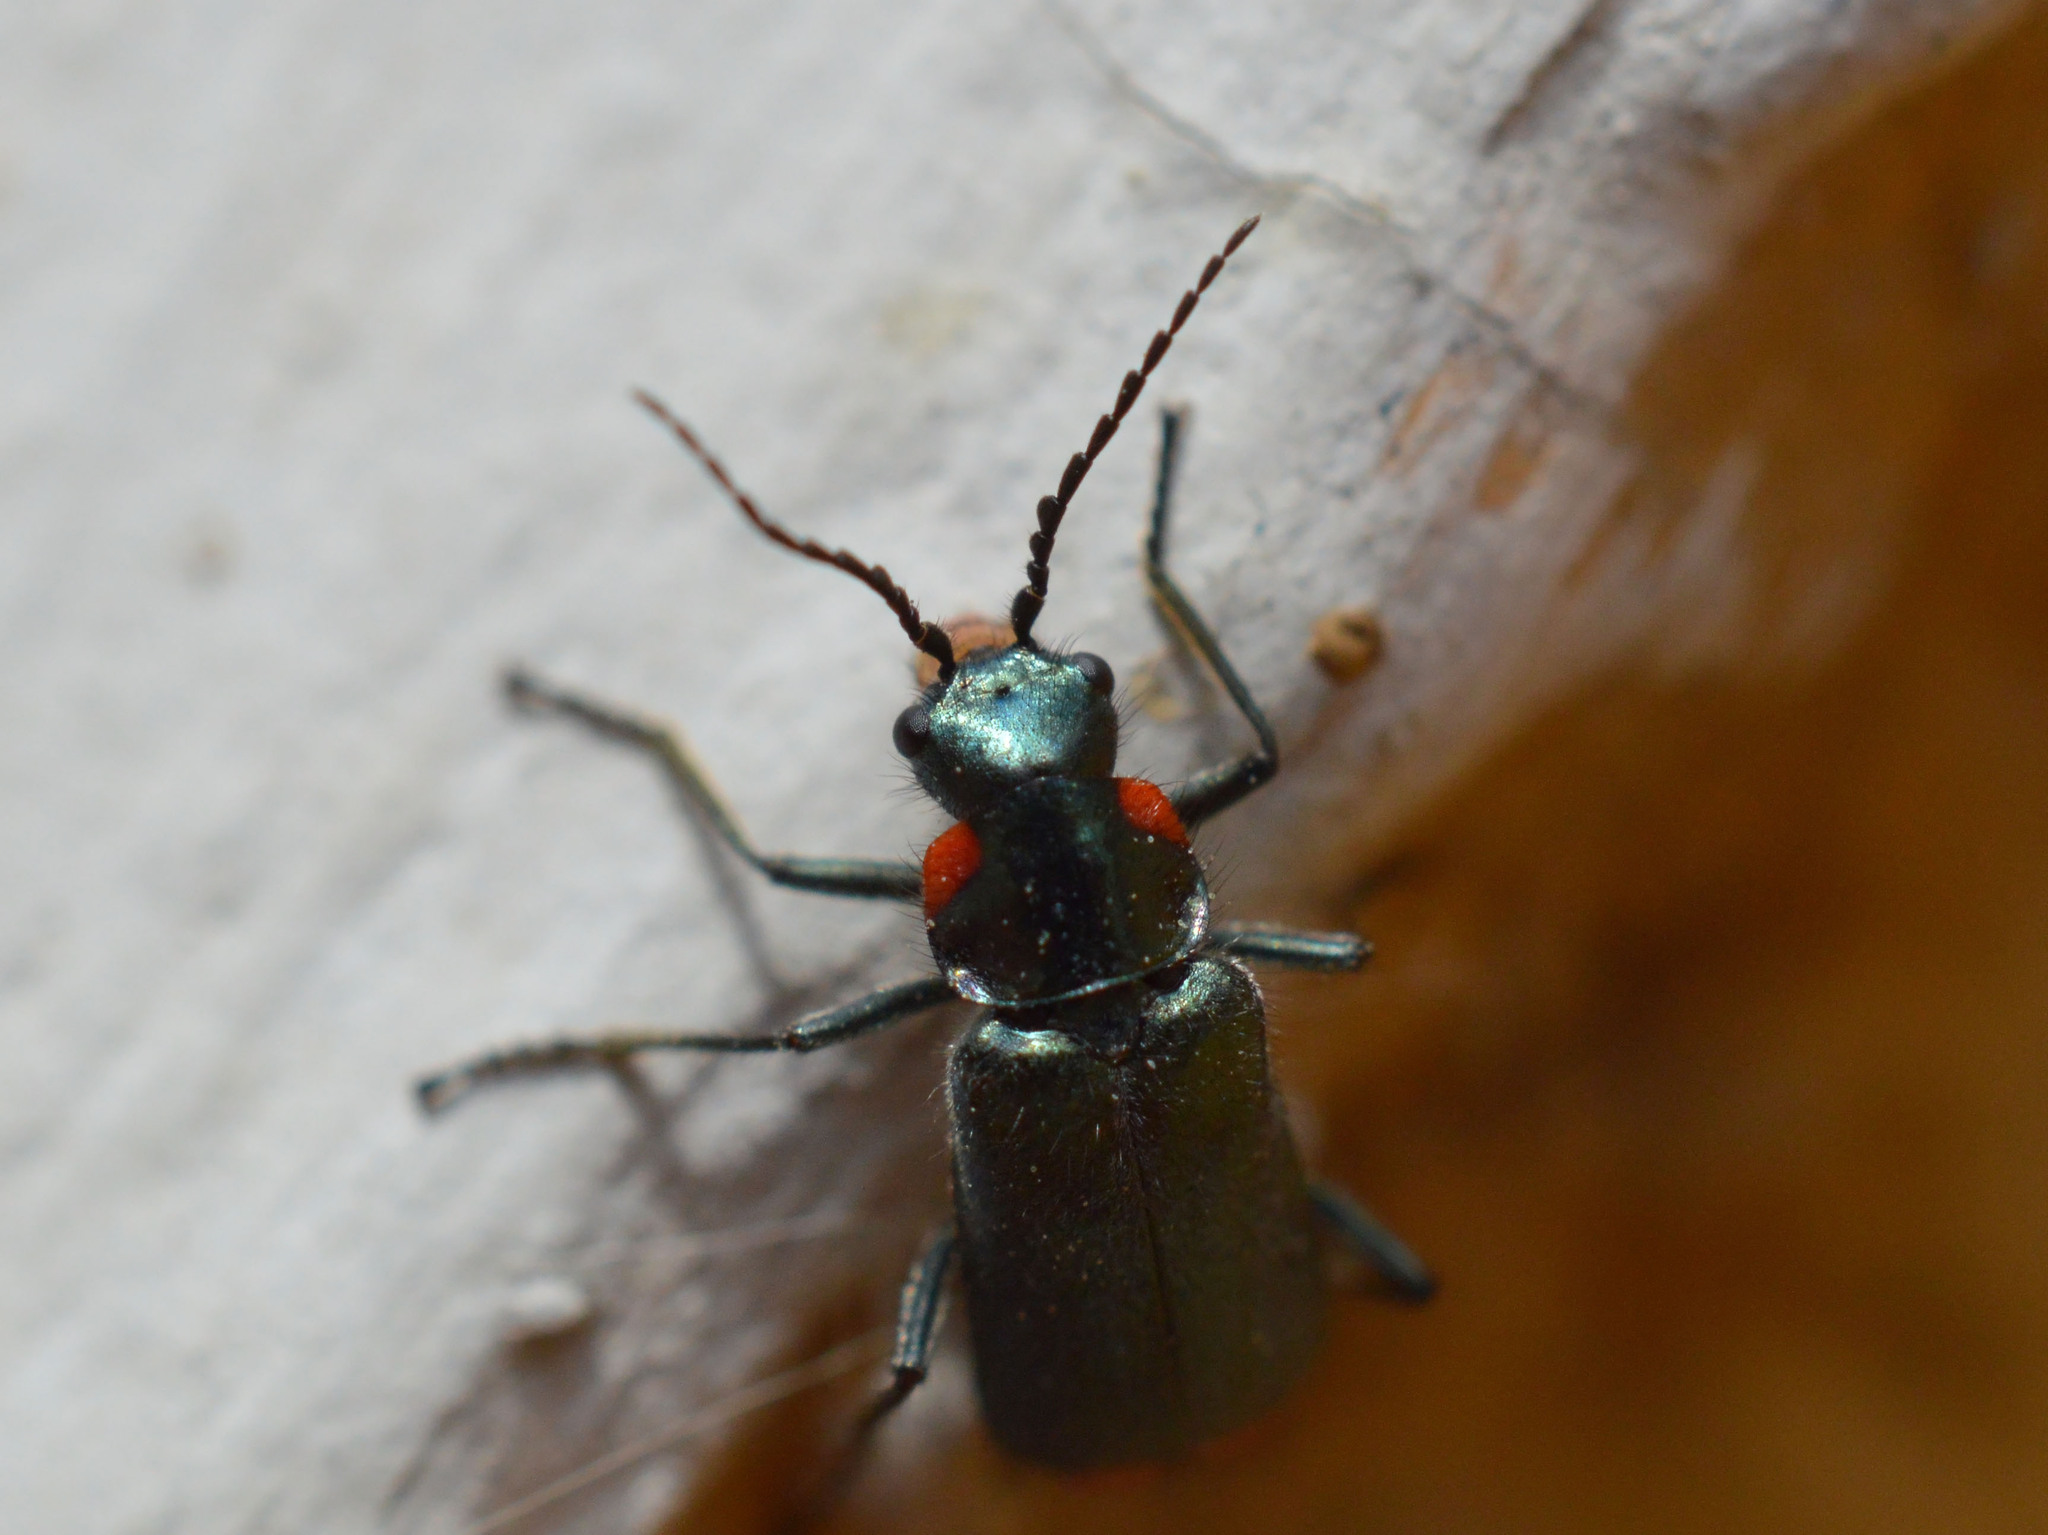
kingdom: Animalia
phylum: Arthropoda
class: Insecta
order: Coleoptera
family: Melyridae
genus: Malachius
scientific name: Malachius
